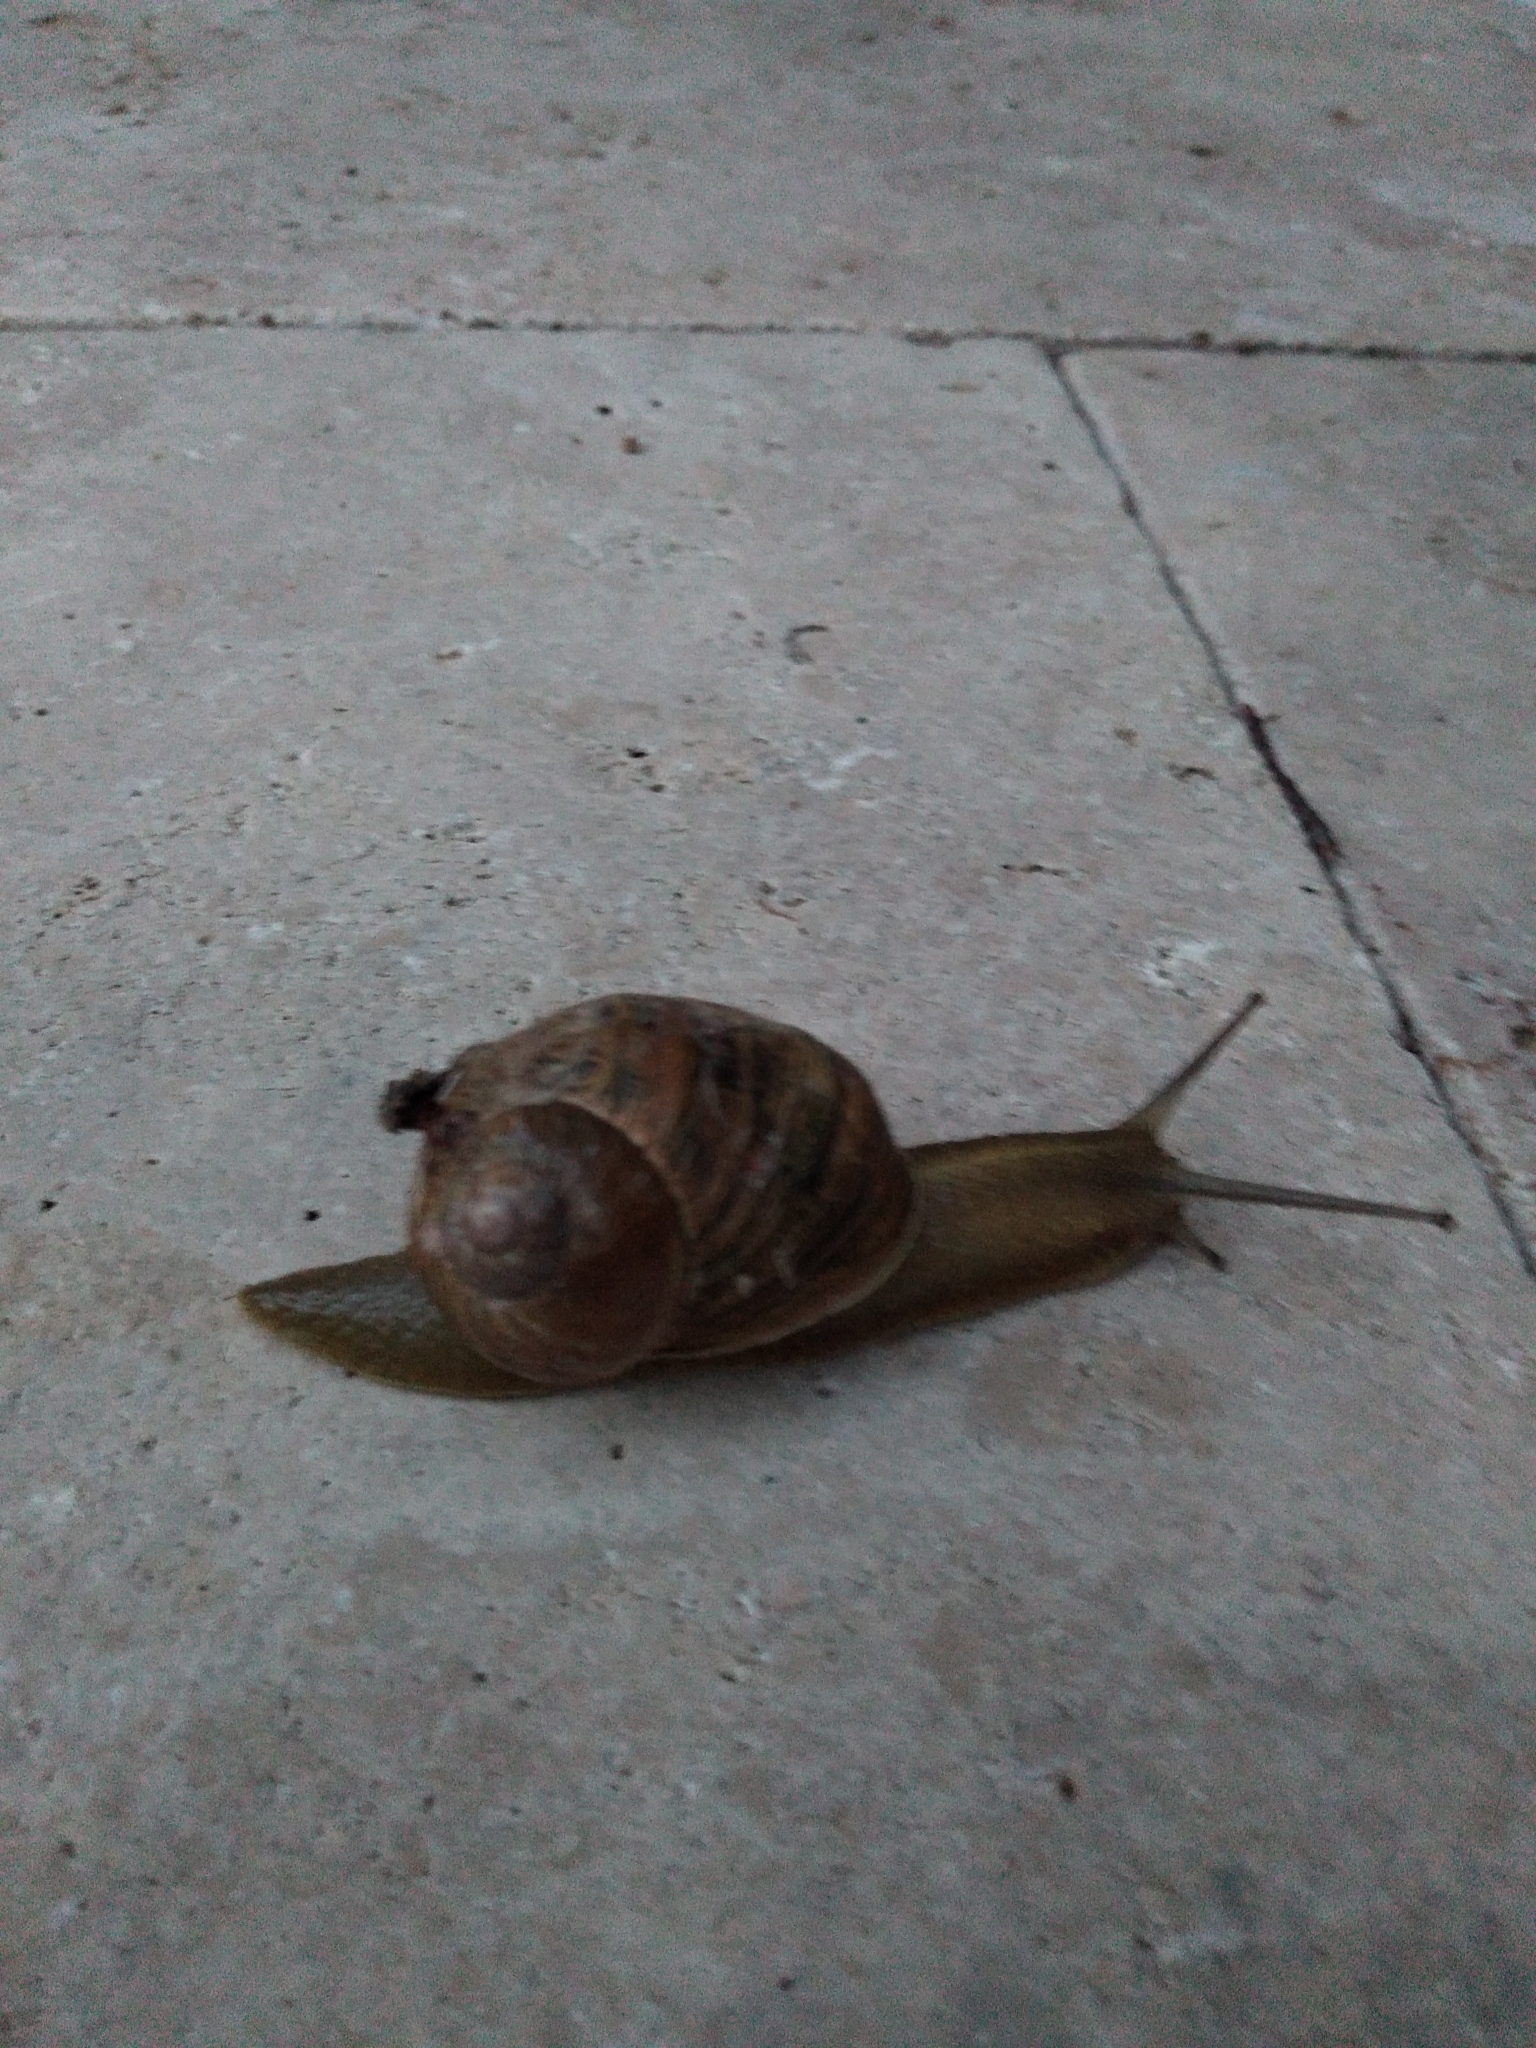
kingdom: Animalia
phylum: Mollusca
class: Gastropoda
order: Stylommatophora
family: Helicidae
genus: Cornu
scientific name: Cornu aspersum
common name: Brown garden snail
